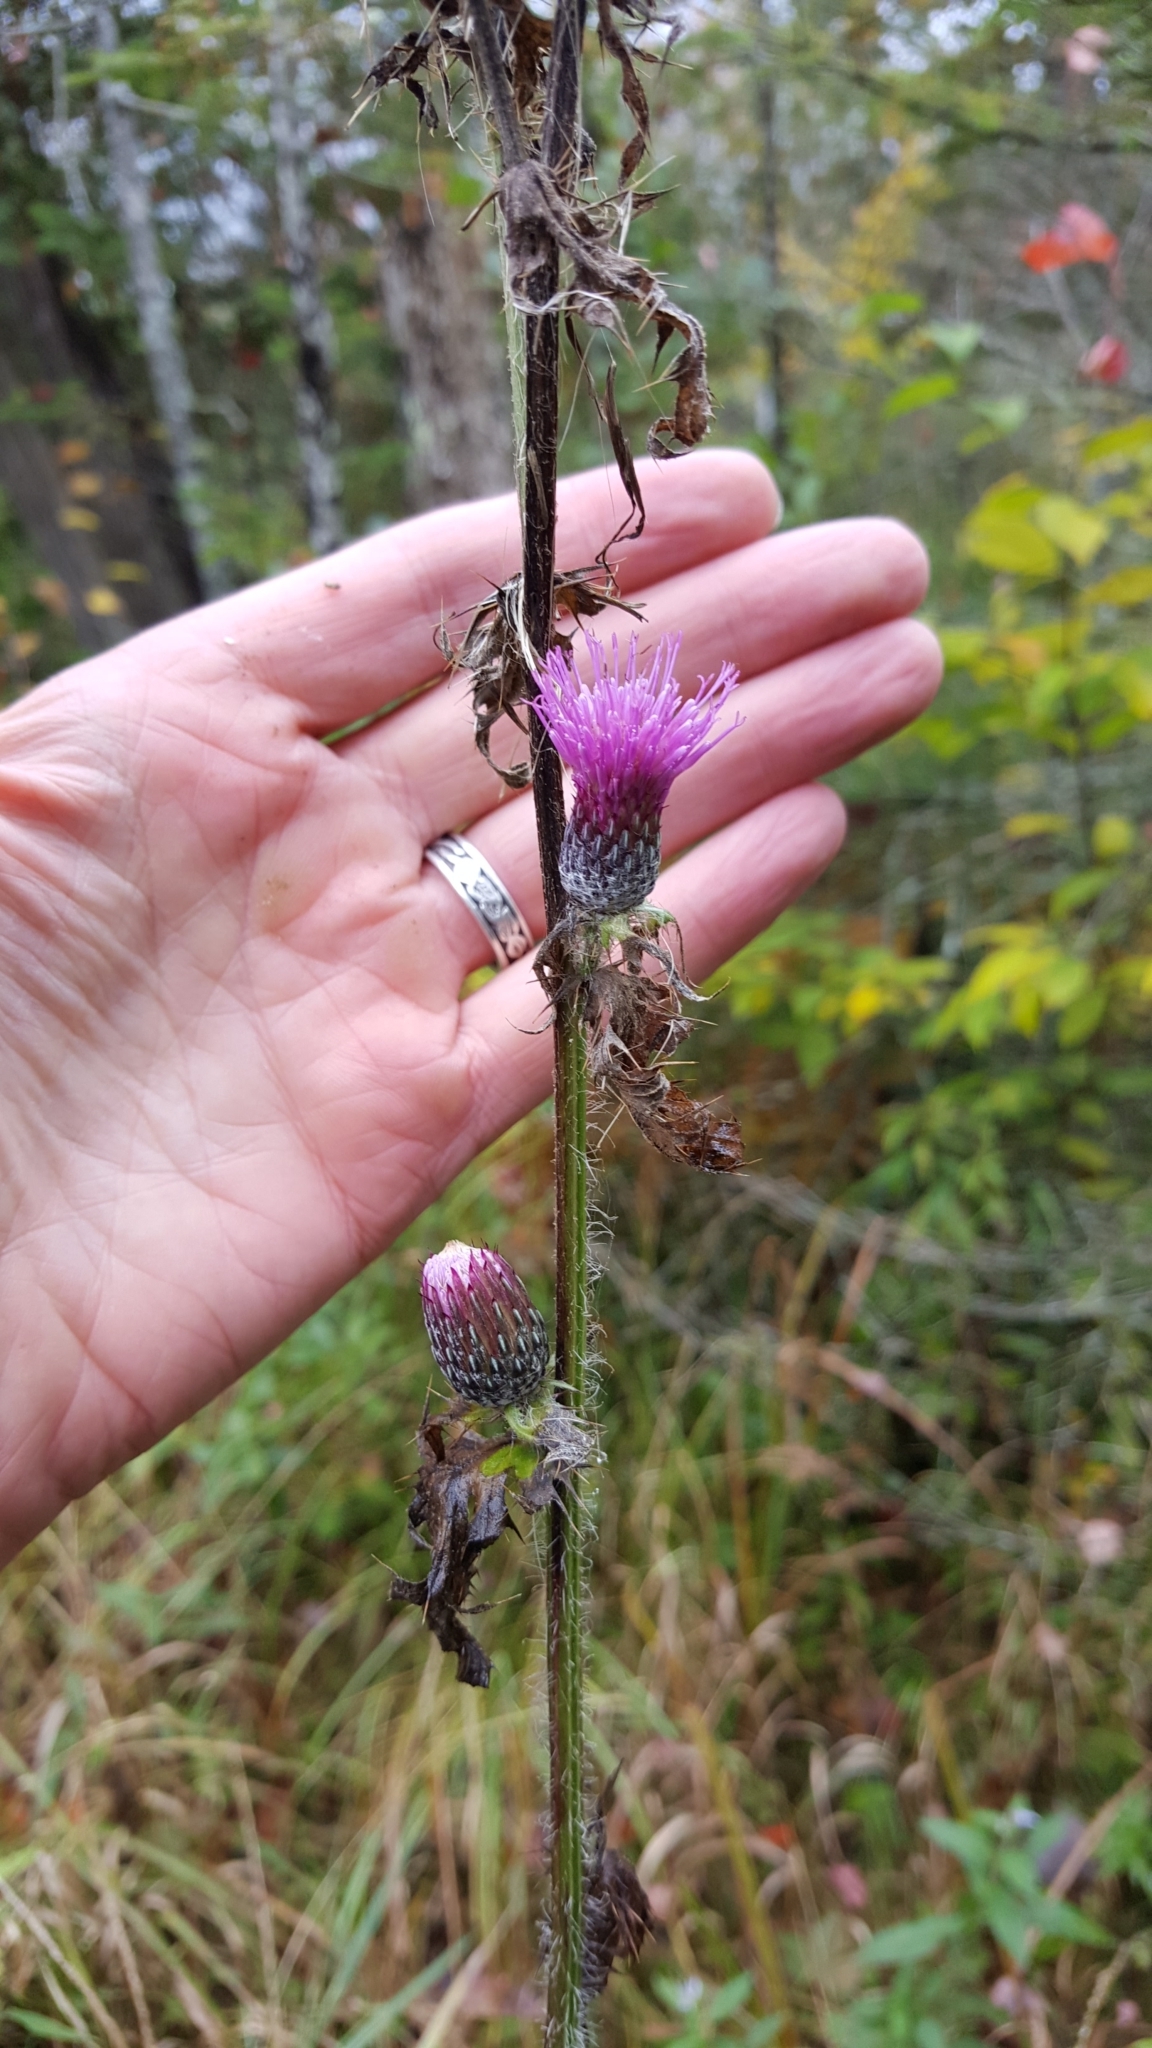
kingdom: Plantae
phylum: Tracheophyta
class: Magnoliopsida
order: Asterales
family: Asteraceae
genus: Cirsium
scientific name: Cirsium muticum
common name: Dunce-nettle
